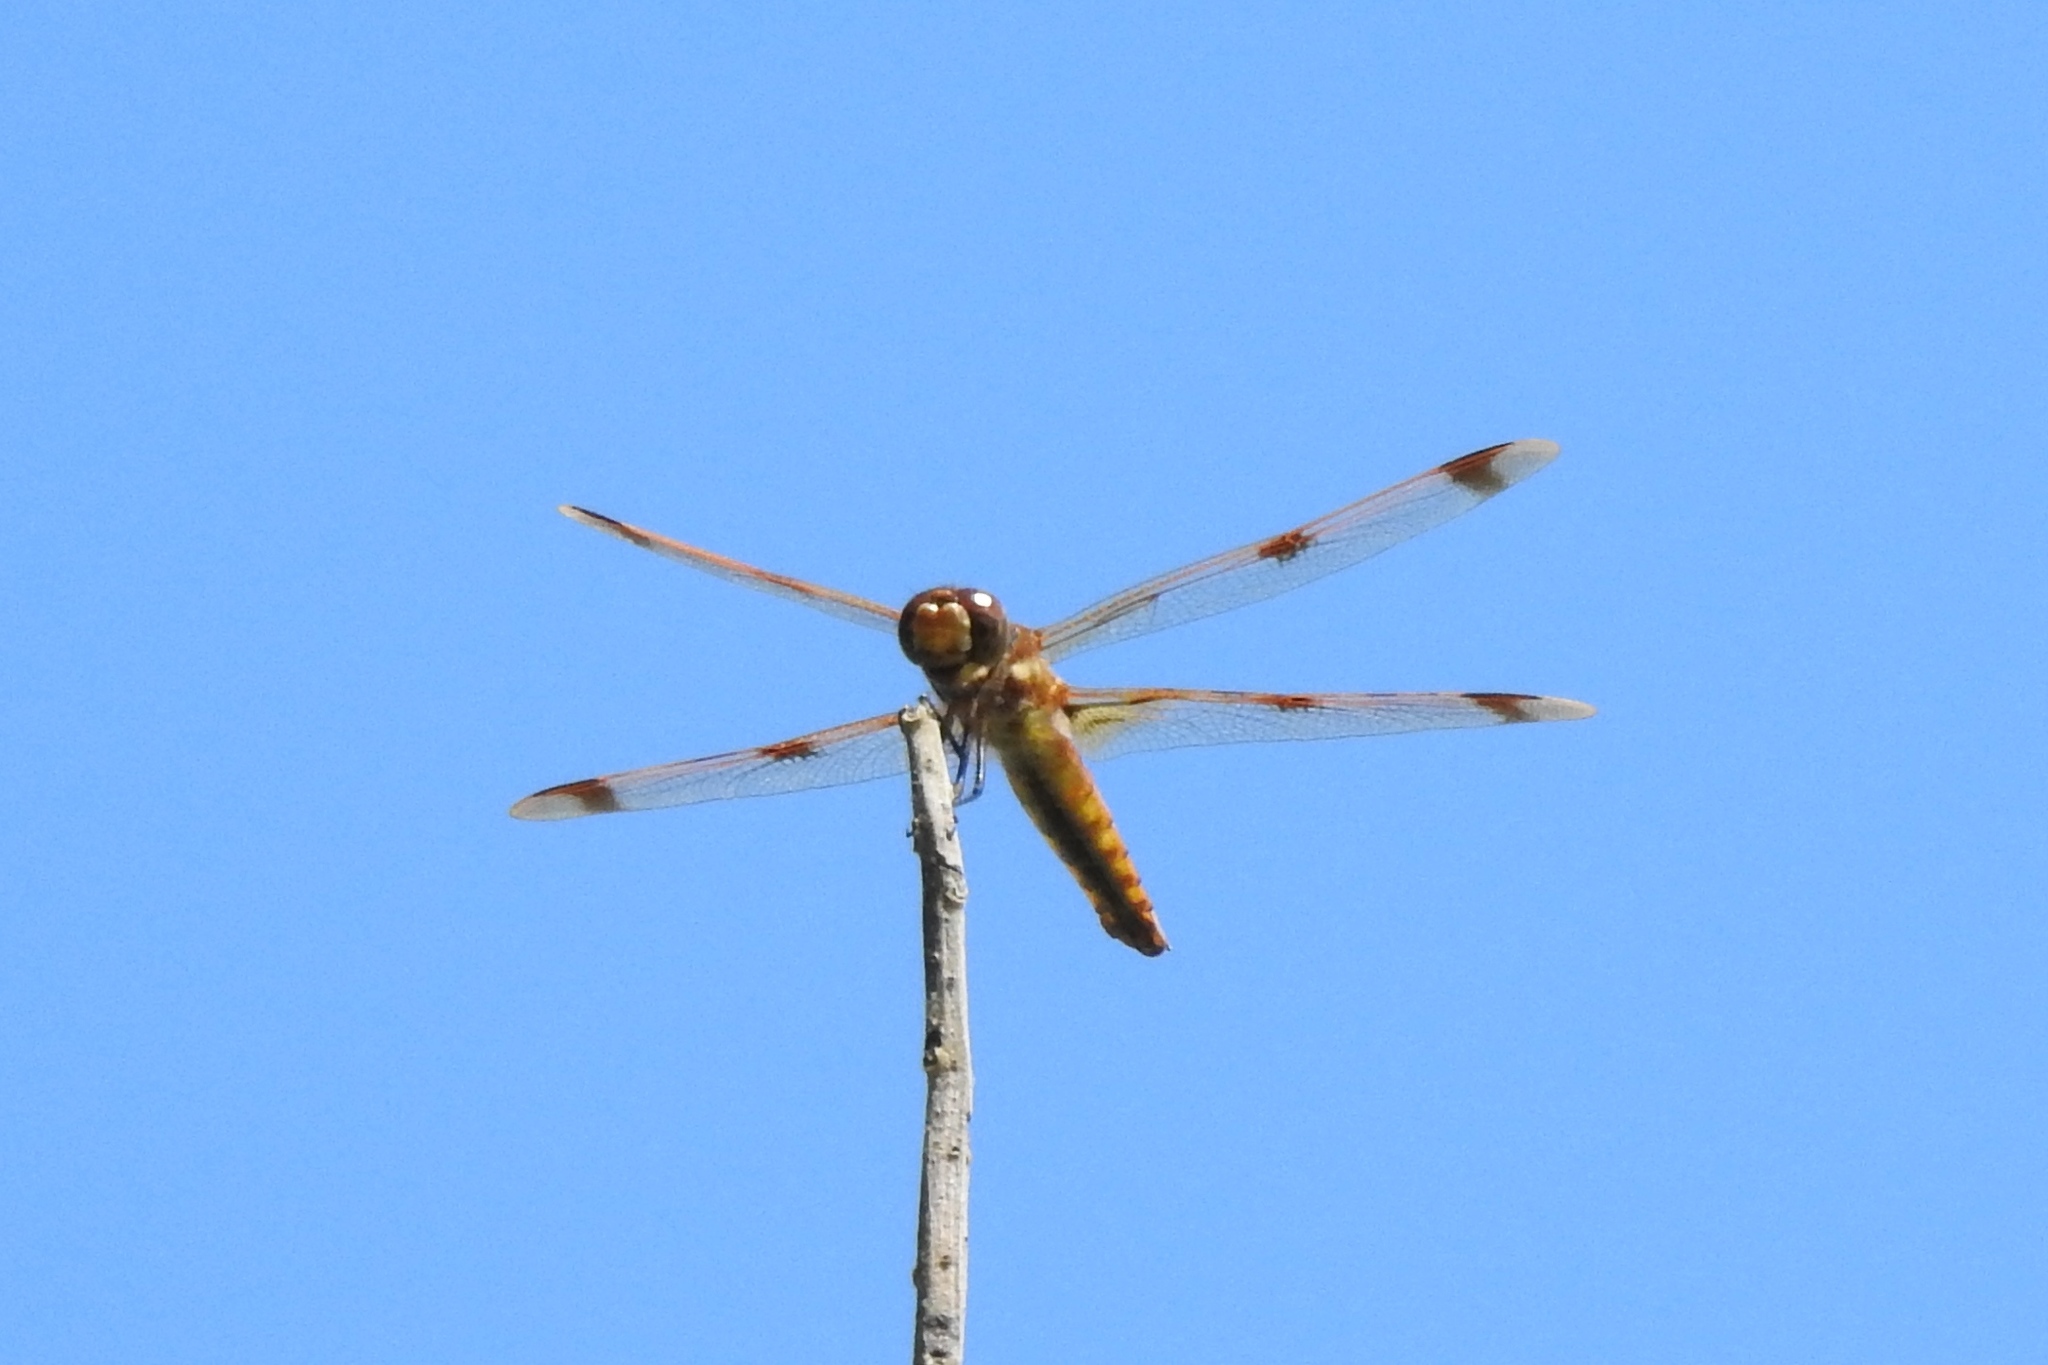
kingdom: Animalia
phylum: Arthropoda
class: Insecta
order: Odonata
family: Libellulidae
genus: Libellula
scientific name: Libellula semifasciata
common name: Painted skimmer
